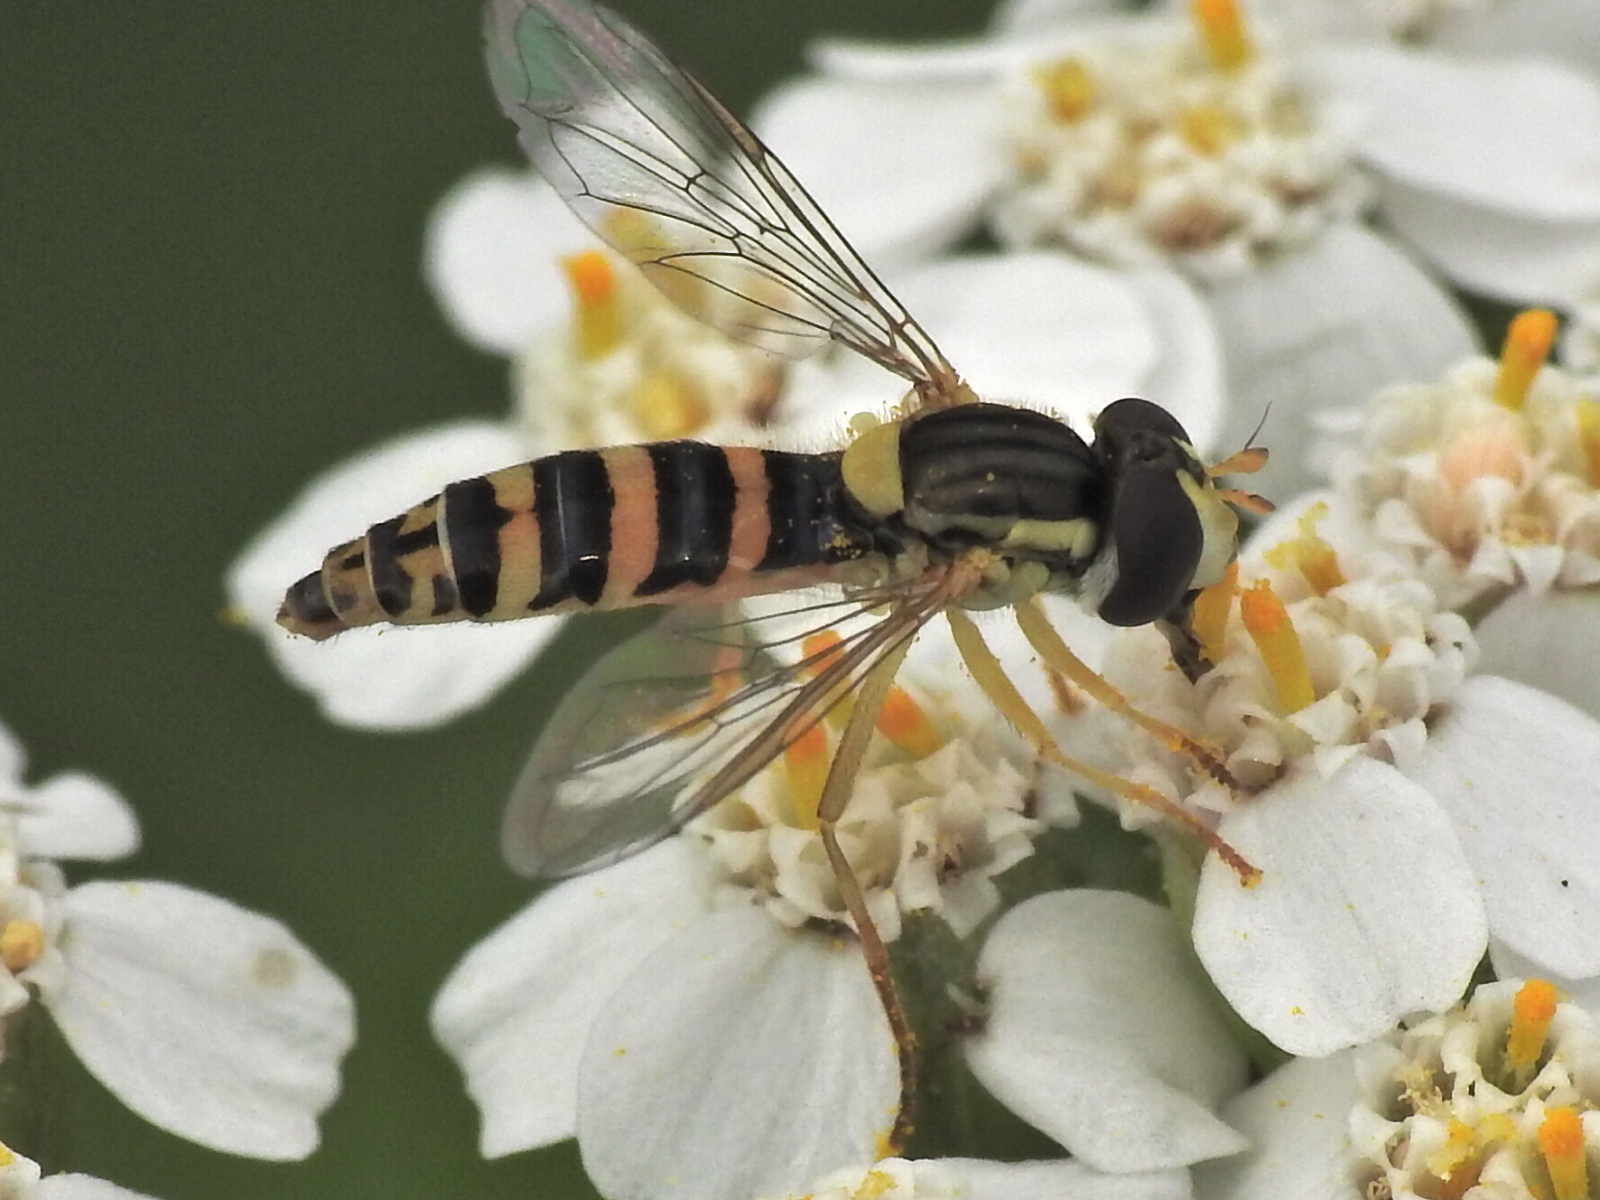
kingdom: Animalia
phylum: Arthropoda
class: Insecta
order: Diptera
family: Syrphidae
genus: Sphaerophoria
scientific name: Sphaerophoria
